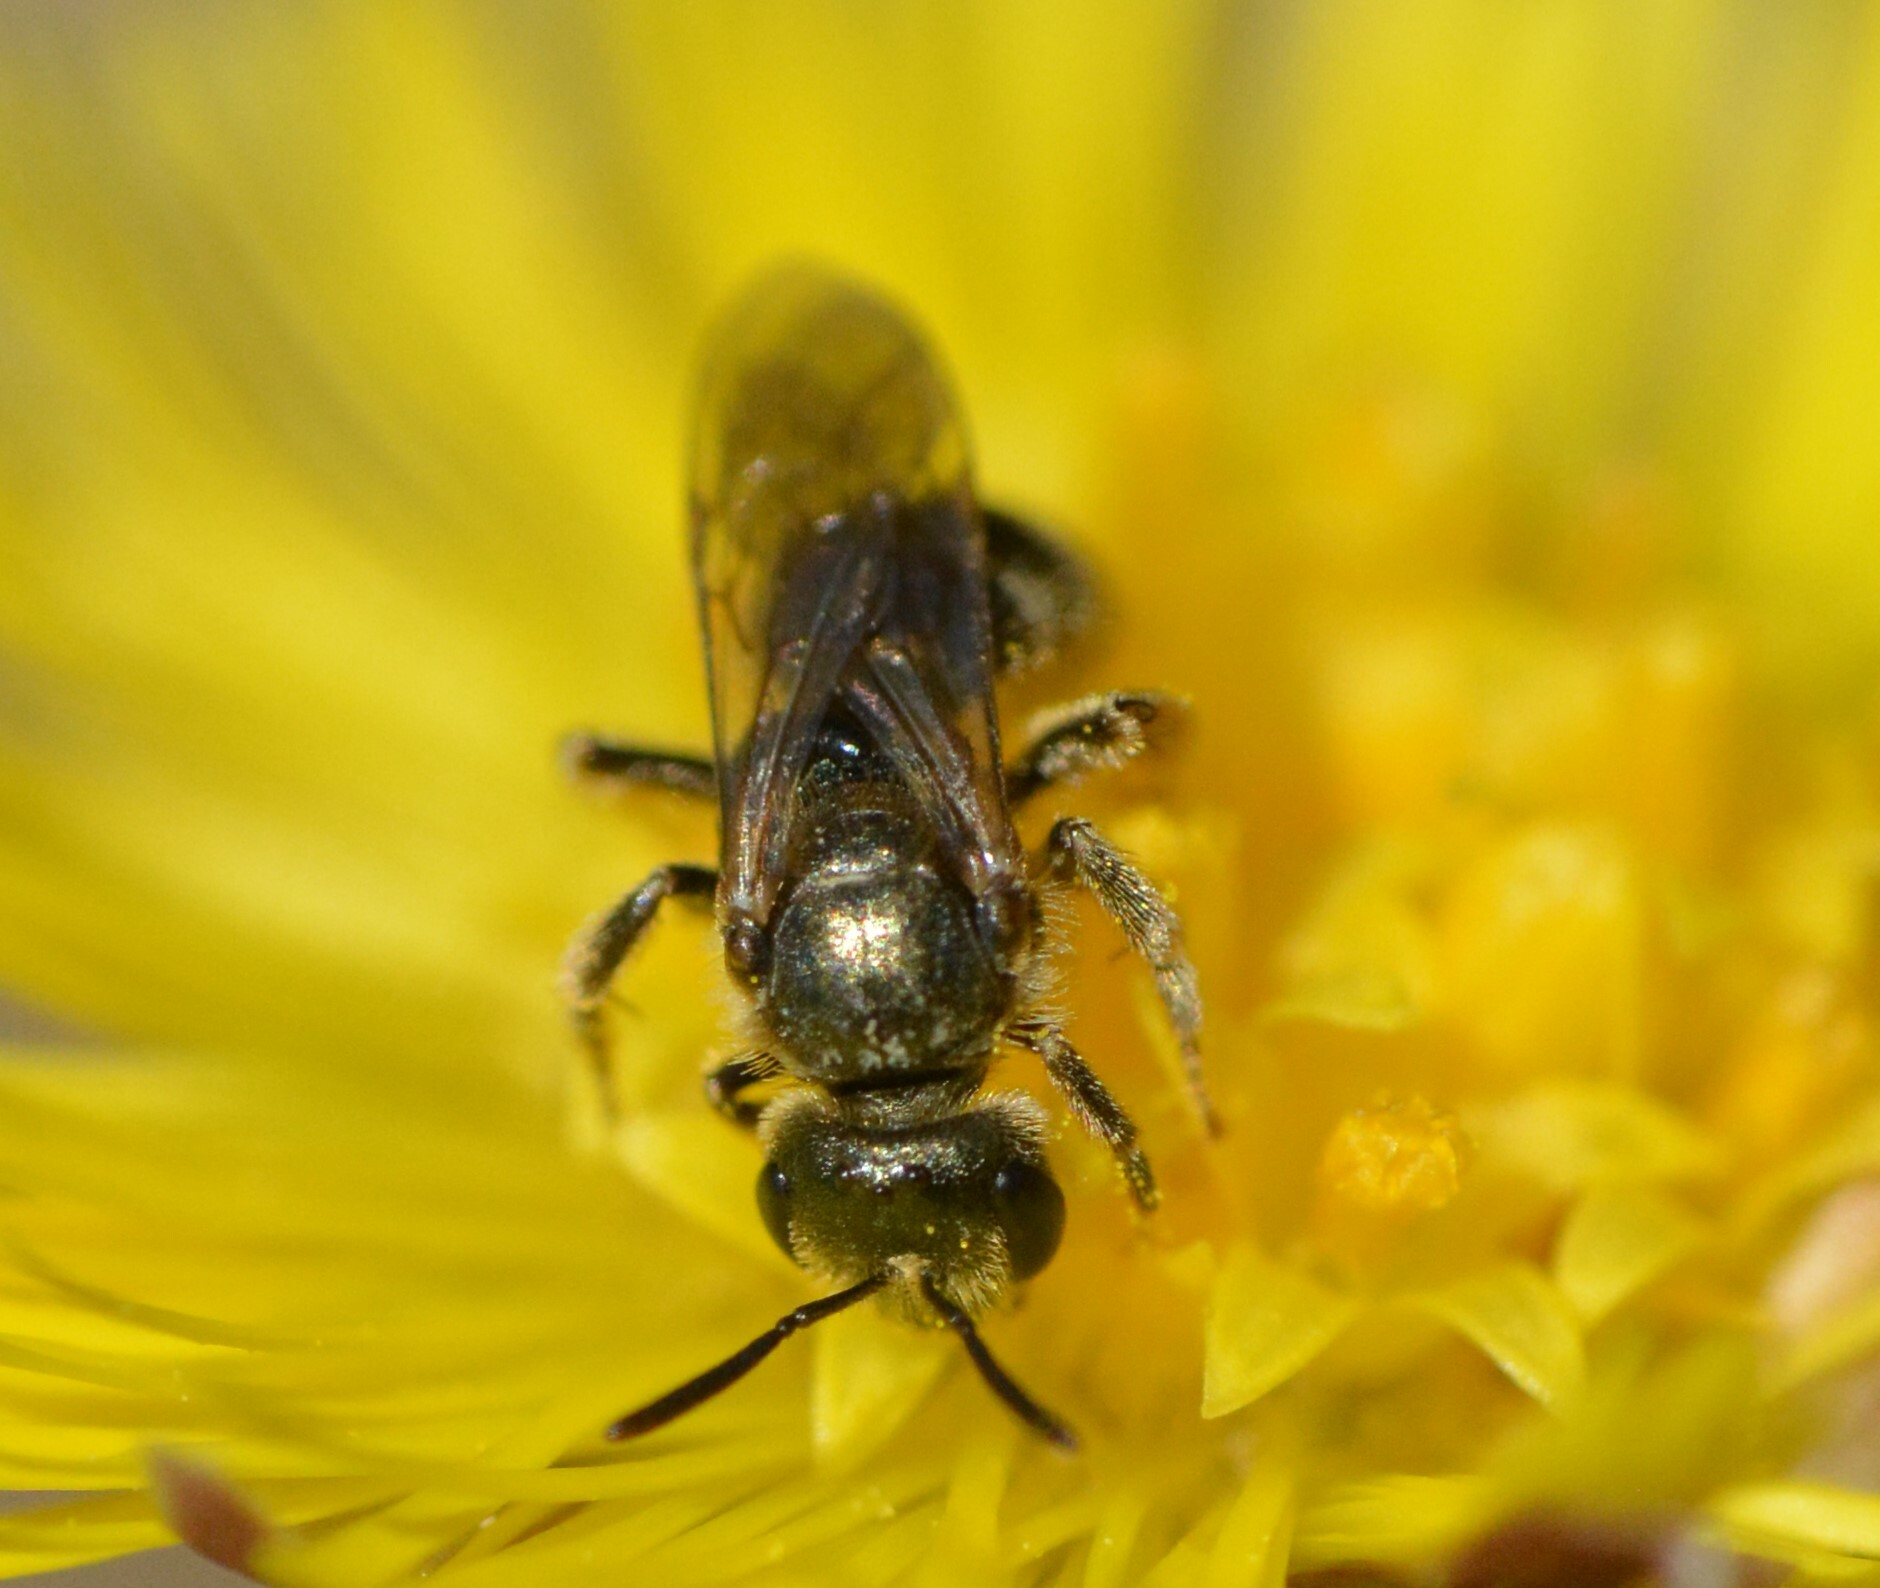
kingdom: Animalia
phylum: Arthropoda
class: Insecta
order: Hymenoptera
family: Halictidae
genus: Halictus
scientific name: Halictus confusus
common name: Southern bronze furrow bee
